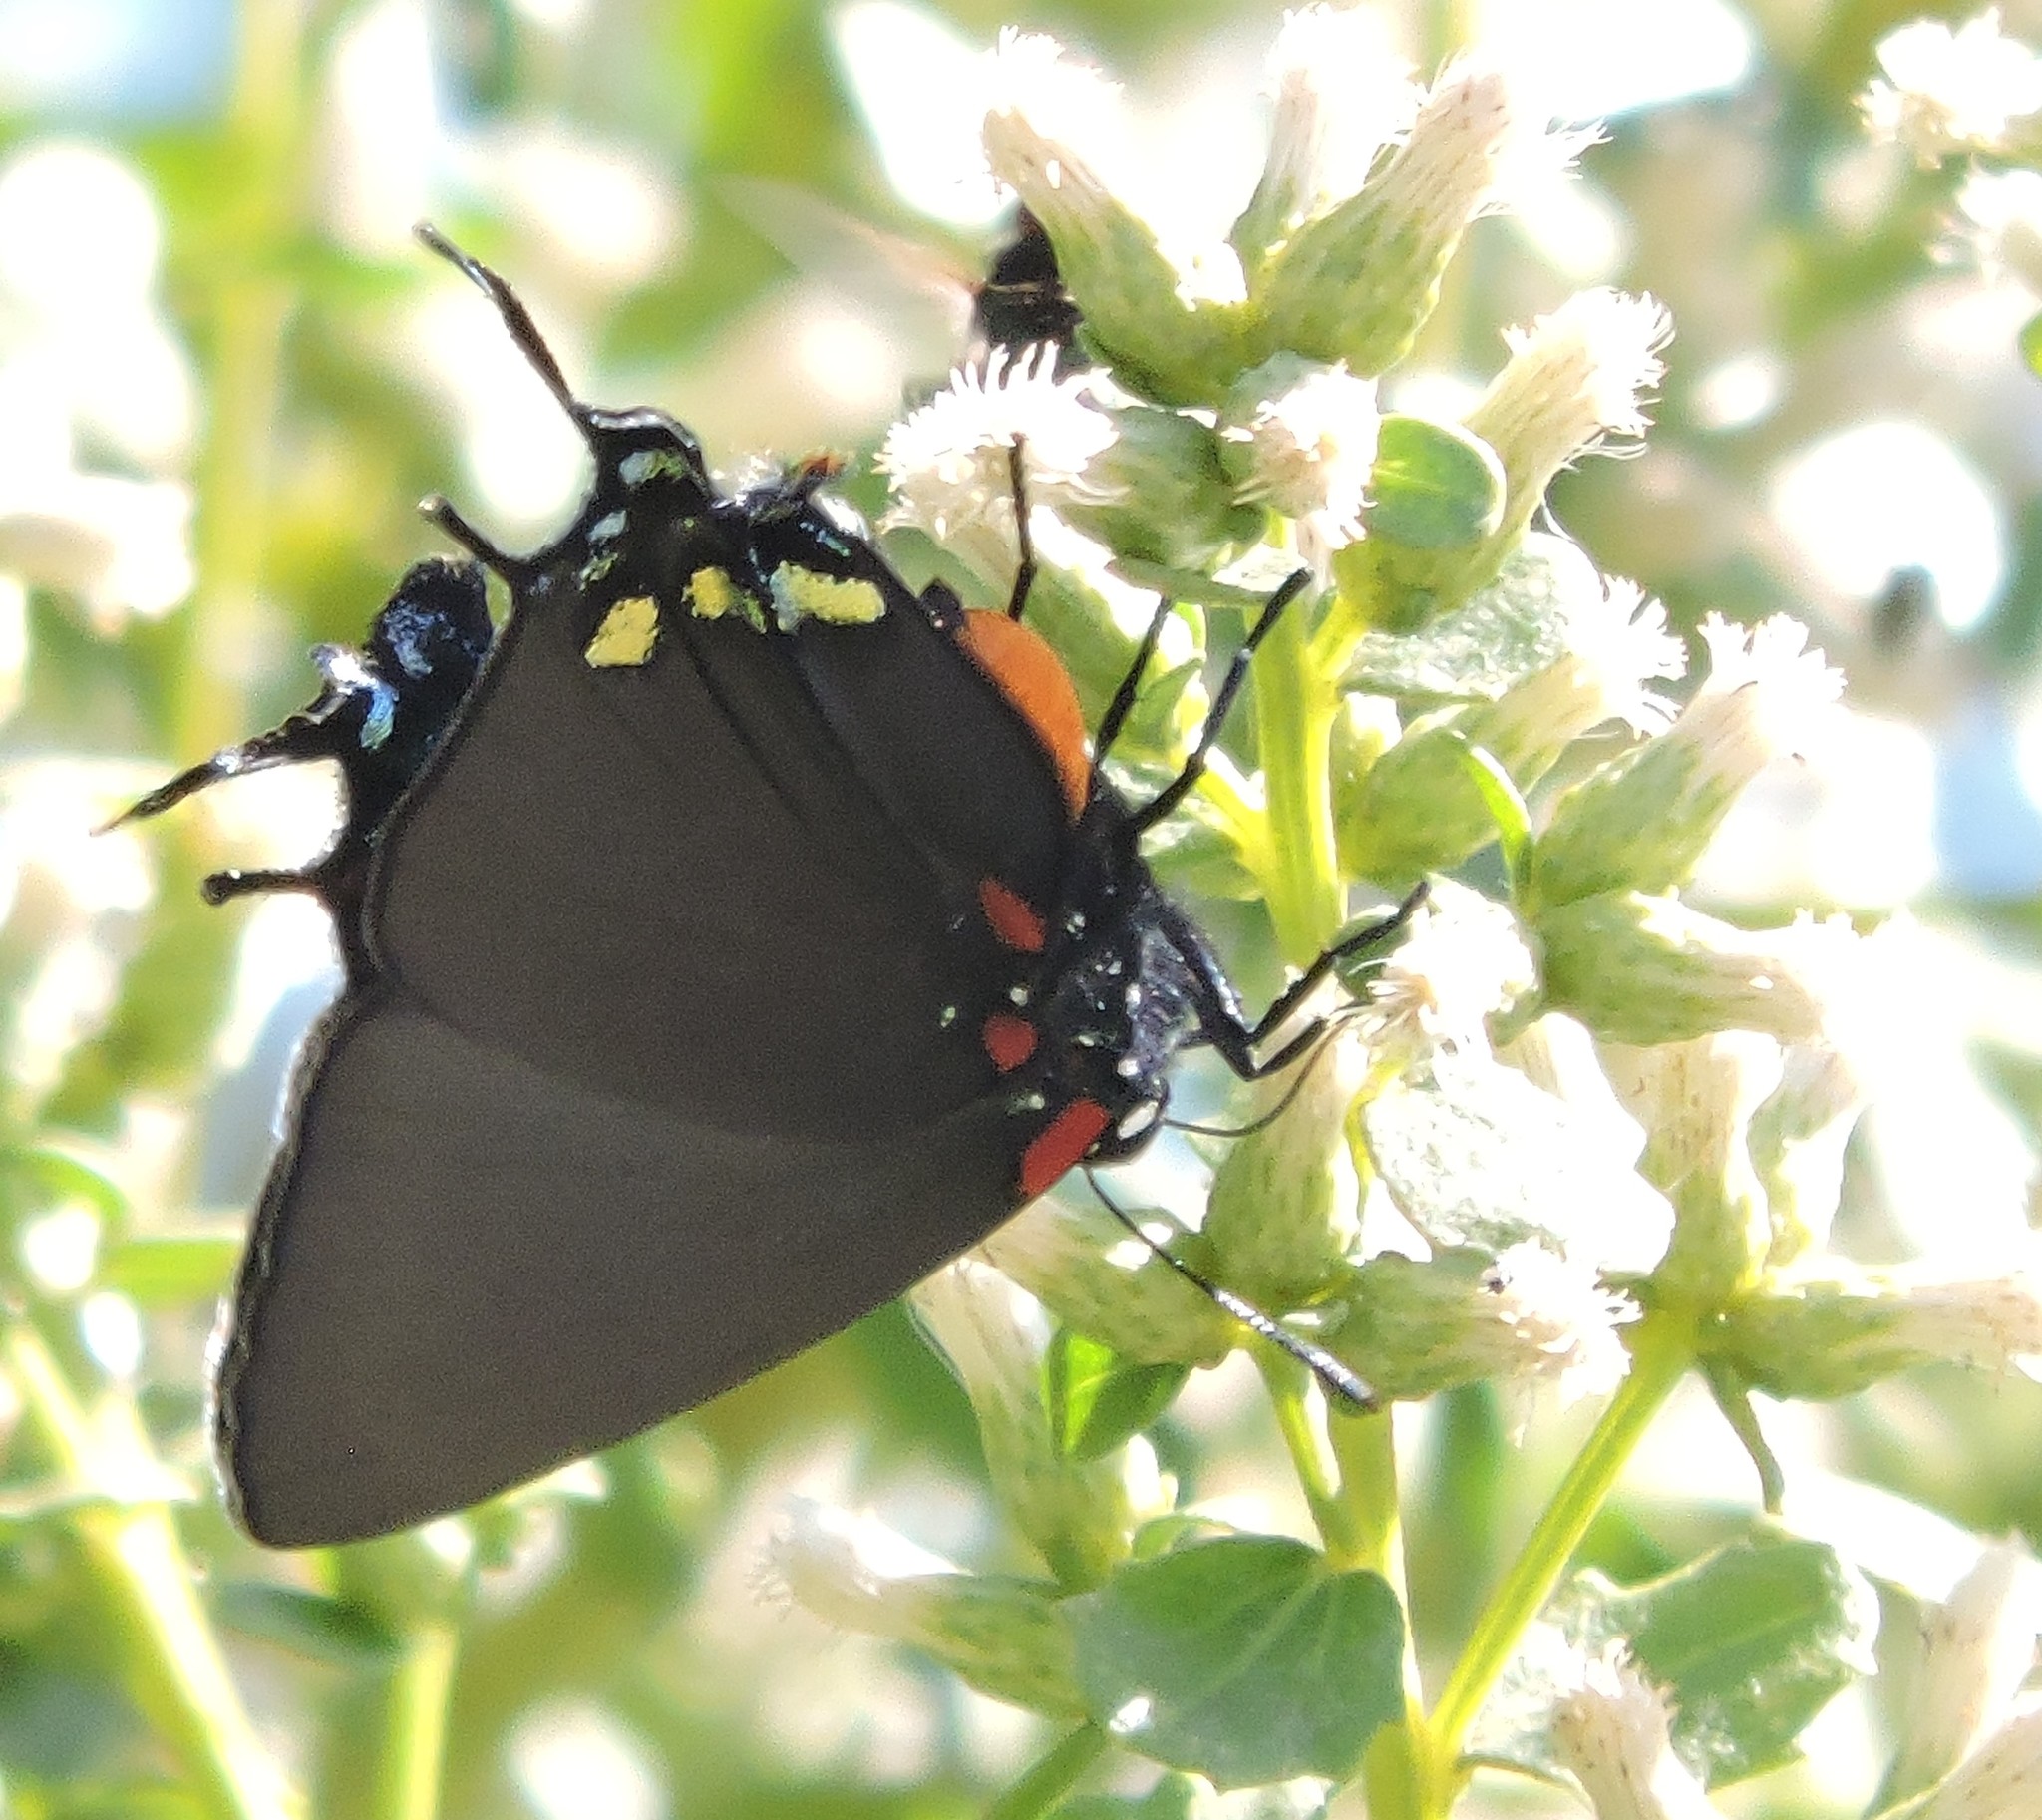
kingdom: Animalia
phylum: Arthropoda
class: Insecta
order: Lepidoptera
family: Lycaenidae
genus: Atlides
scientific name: Atlides halesus
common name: Great purple hairstreak
